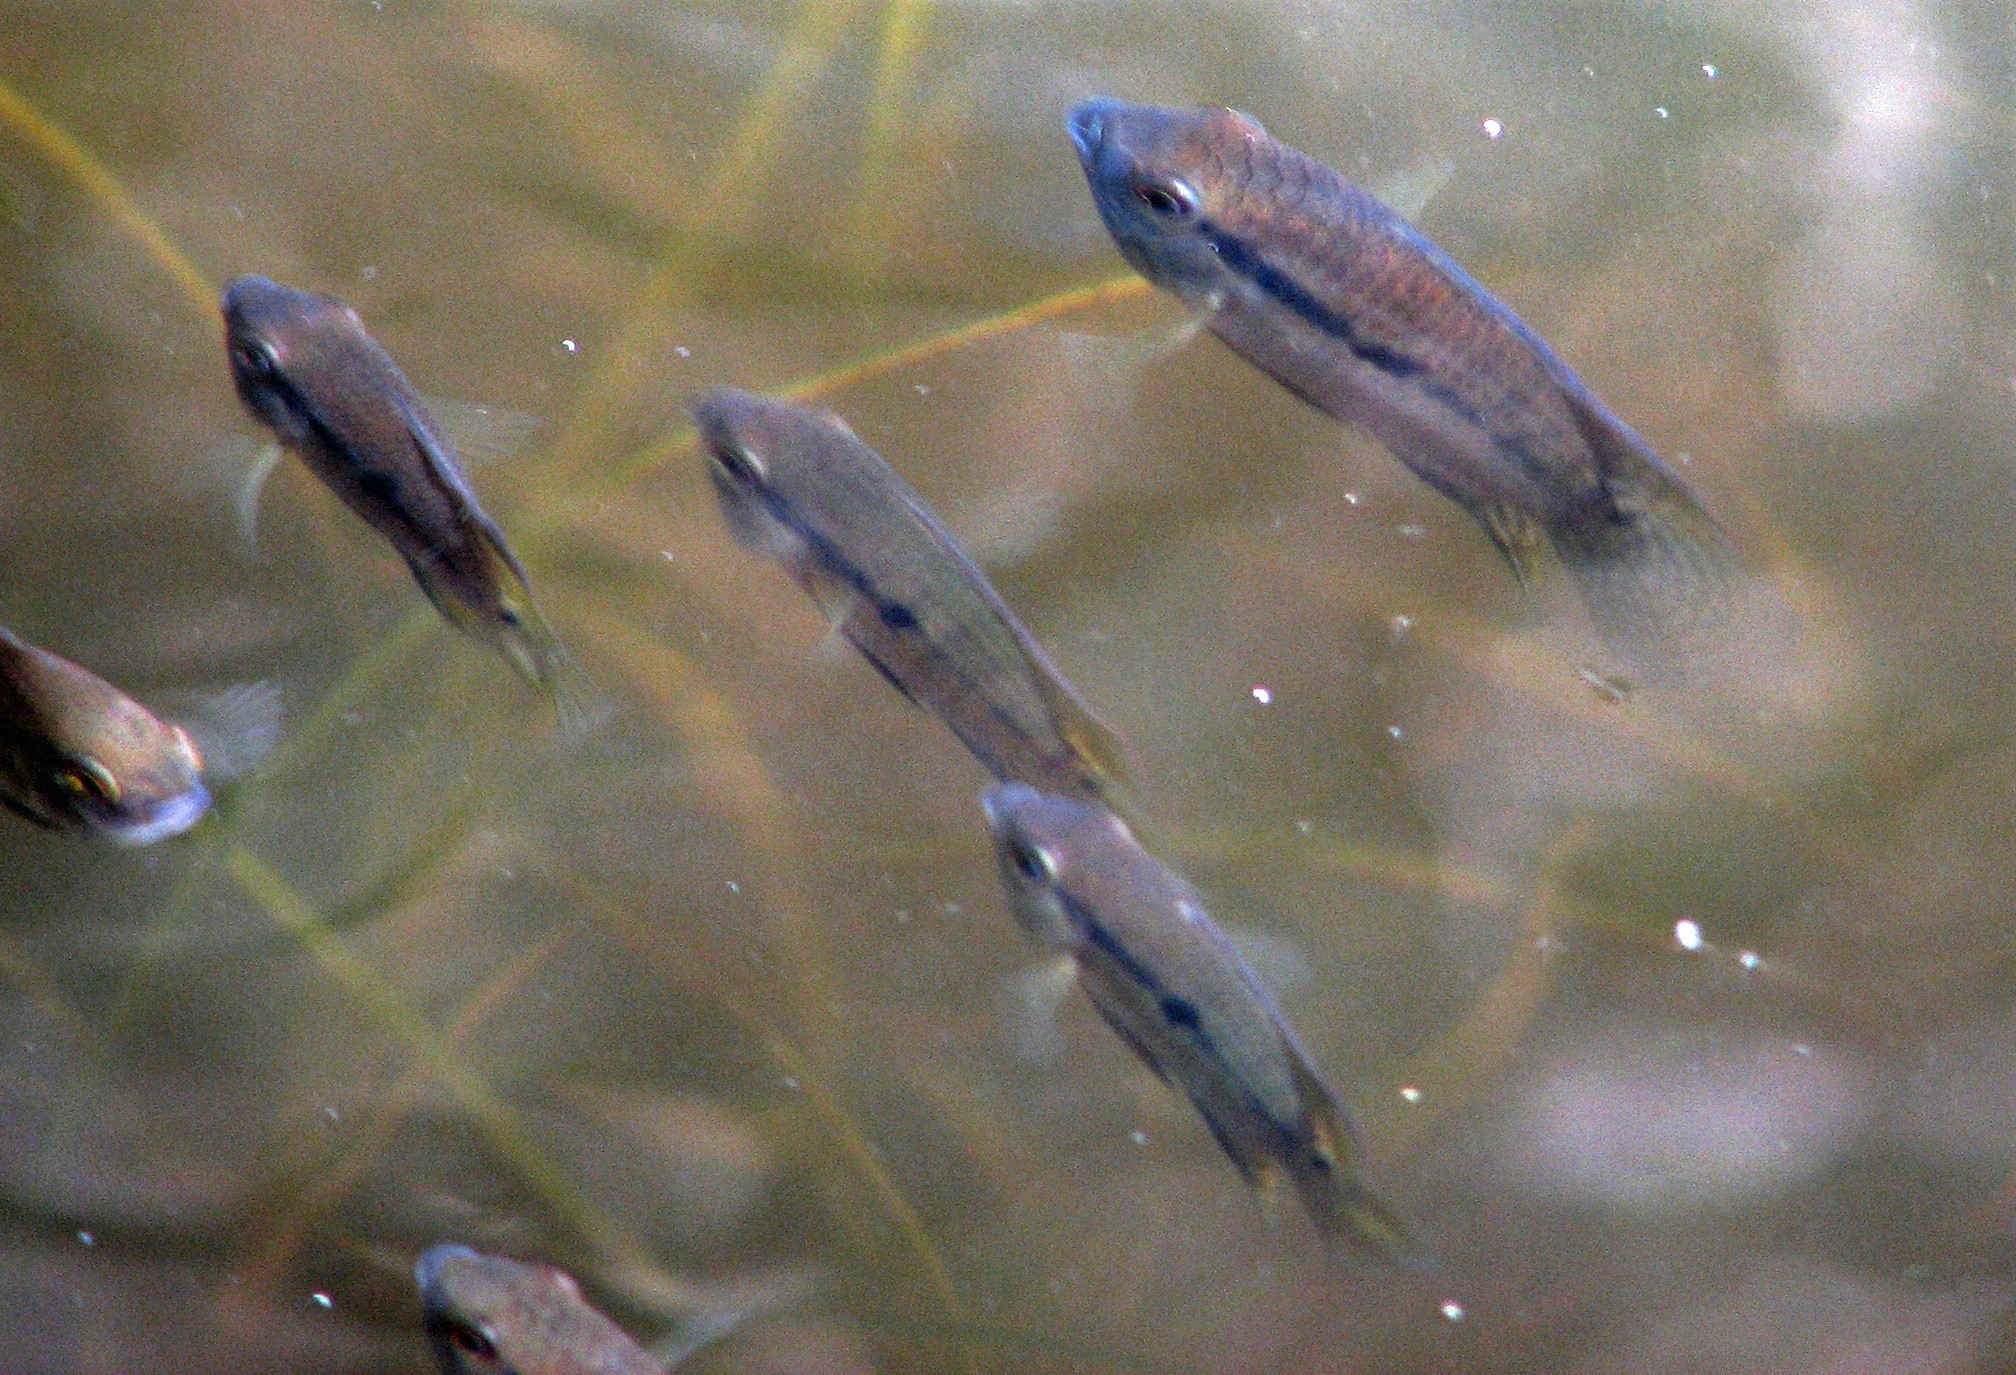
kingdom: Animalia
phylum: Chordata
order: Perciformes
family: Cichlidae
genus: Cichlasoma
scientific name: Cichlasoma dimerus
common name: Chanchita
